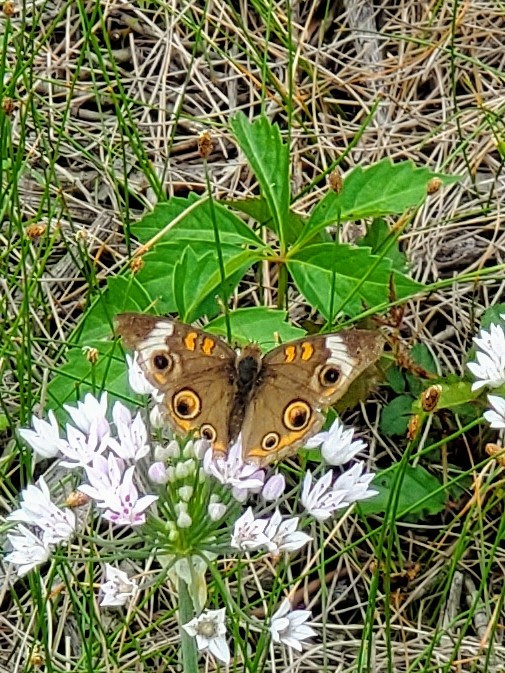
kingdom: Animalia
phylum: Arthropoda
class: Insecta
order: Lepidoptera
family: Nymphalidae
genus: Junonia
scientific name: Junonia coenia
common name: Common buckeye
